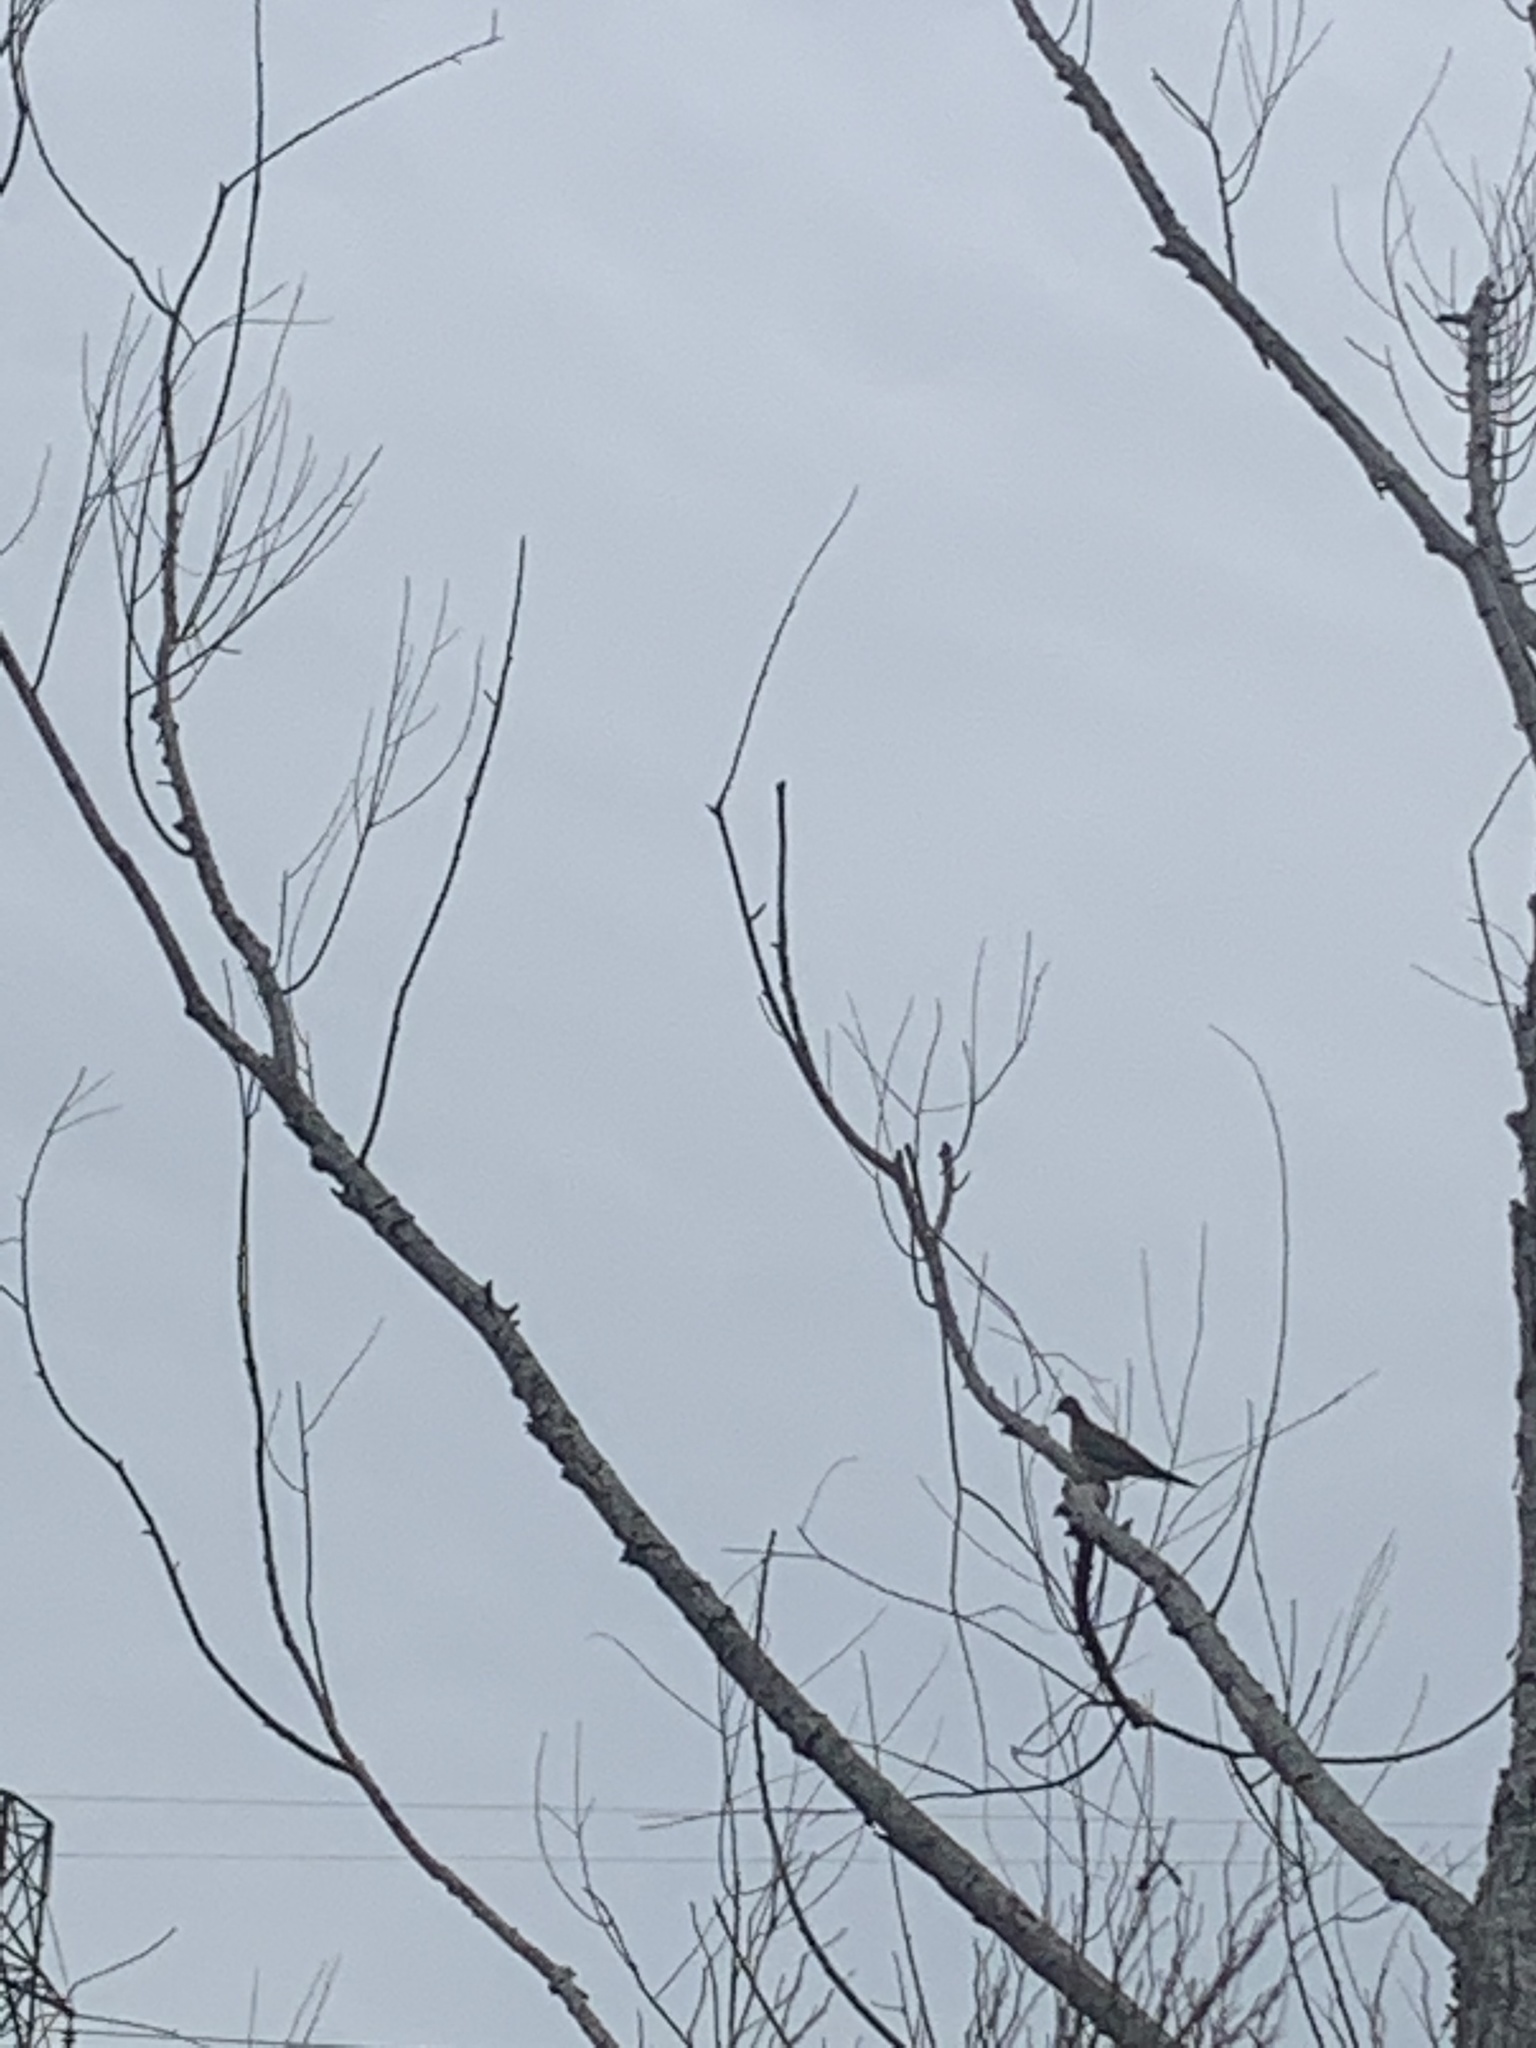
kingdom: Animalia
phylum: Chordata
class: Aves
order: Columbiformes
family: Columbidae
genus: Zenaida
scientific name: Zenaida macroura
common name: Mourning dove
